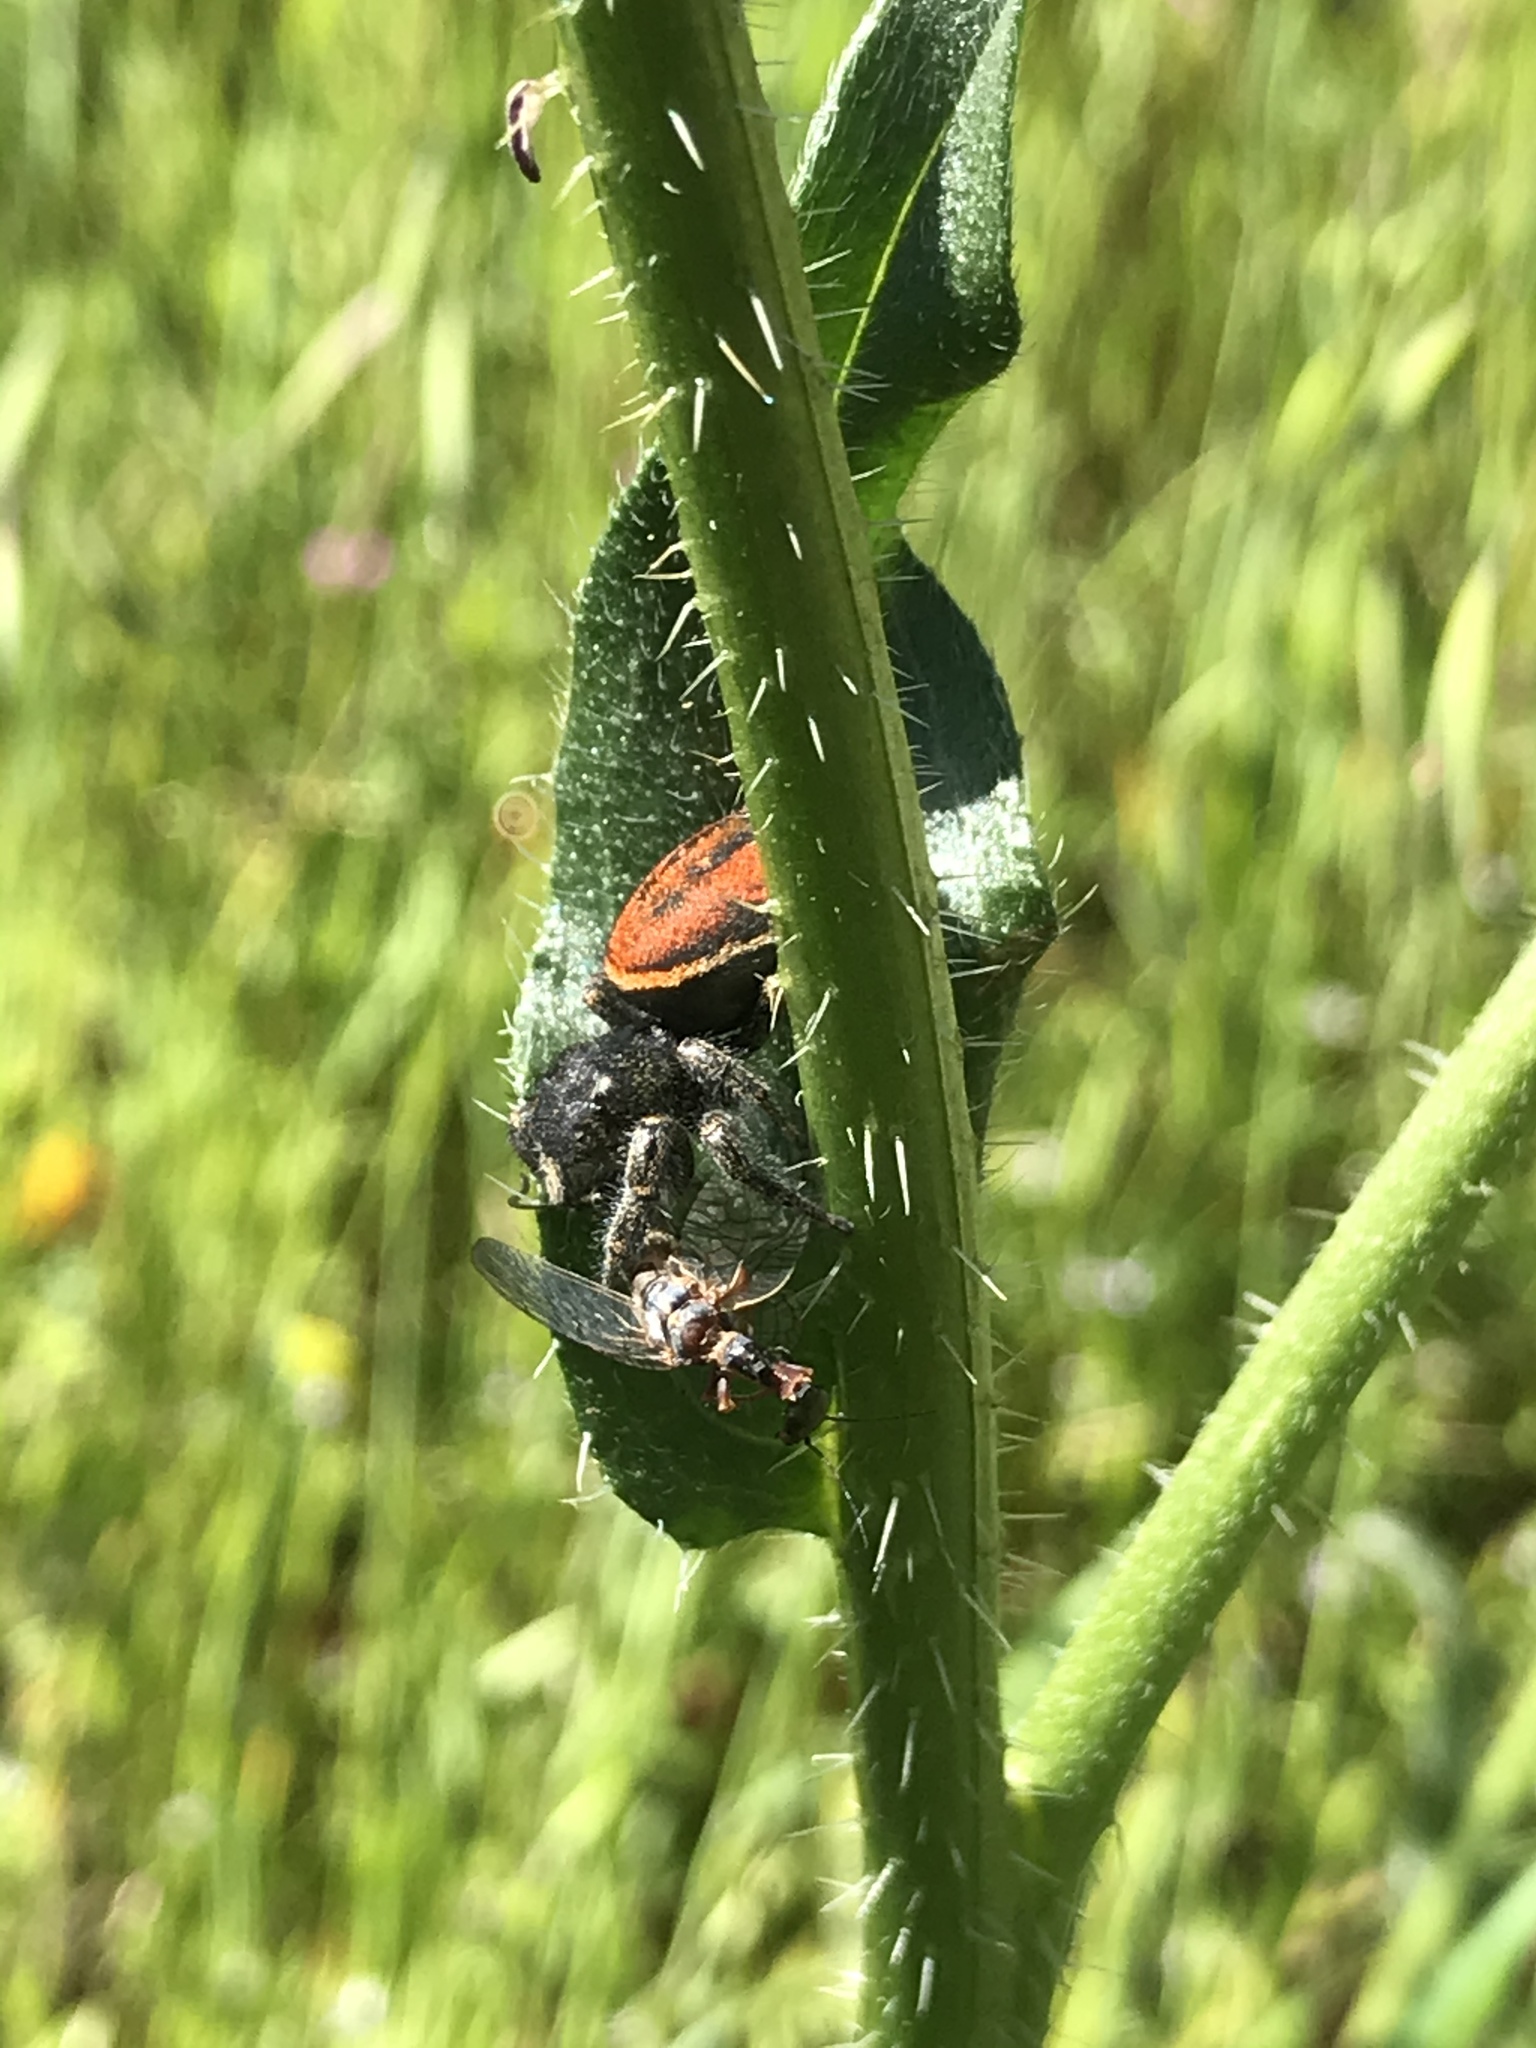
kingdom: Animalia
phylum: Arthropoda
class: Arachnida
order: Araneae
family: Salticidae
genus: Phidippus
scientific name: Phidippus johnsoni
